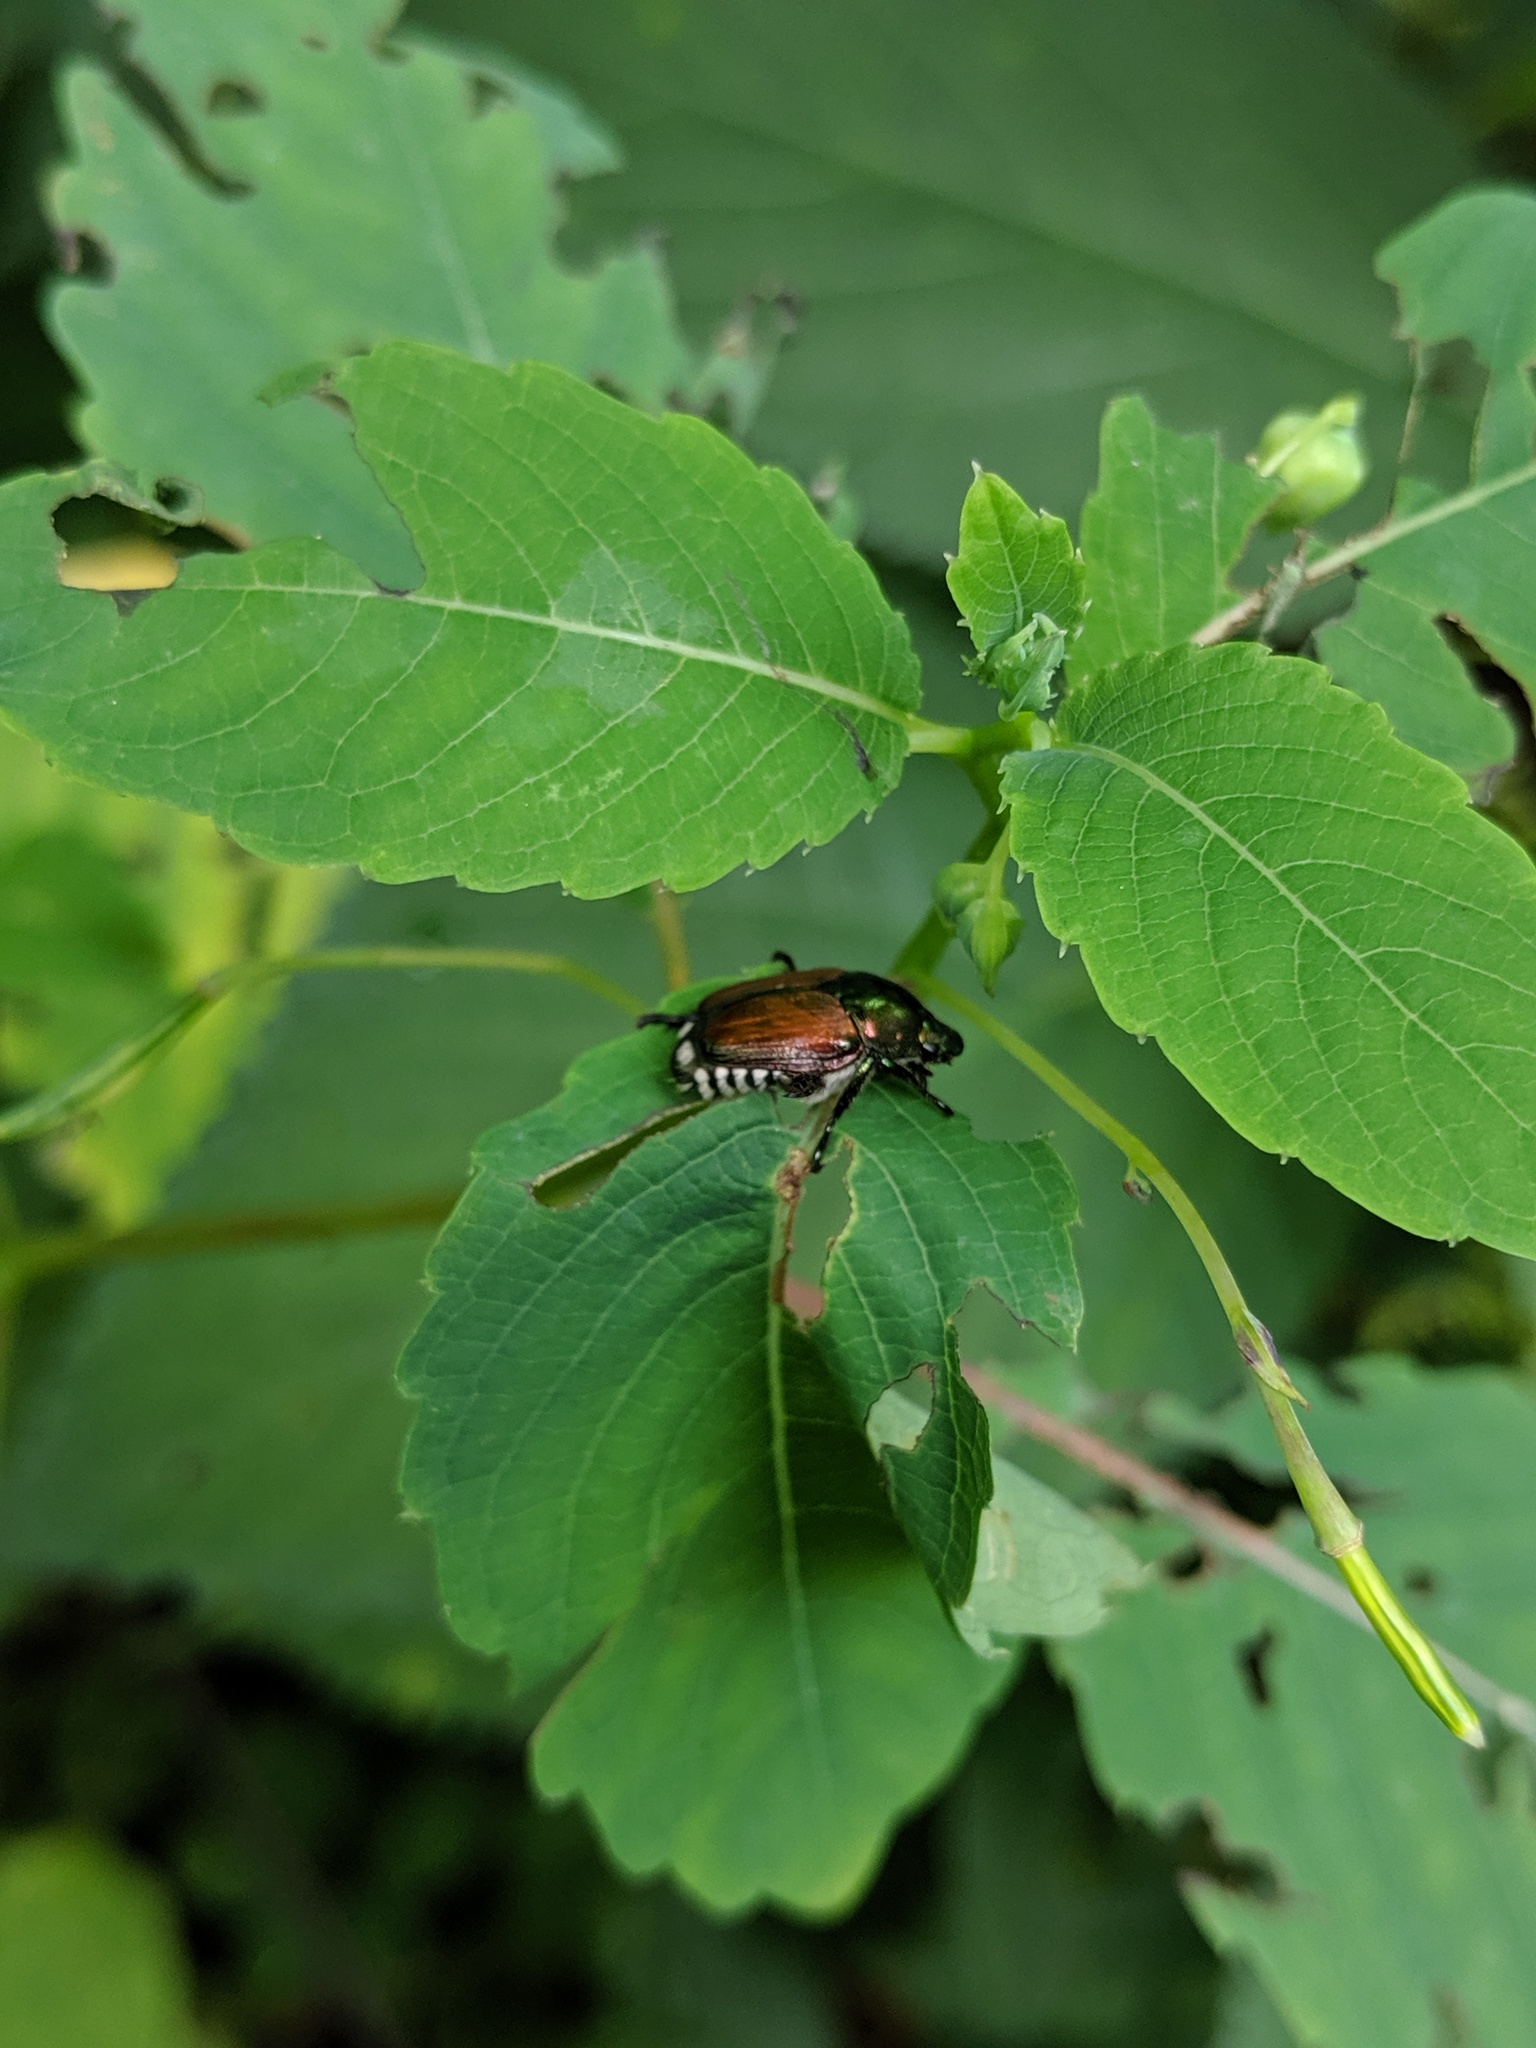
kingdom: Animalia
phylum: Arthropoda
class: Insecta
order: Coleoptera
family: Scarabaeidae
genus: Popillia
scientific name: Popillia japonica
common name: Japanese beetle
